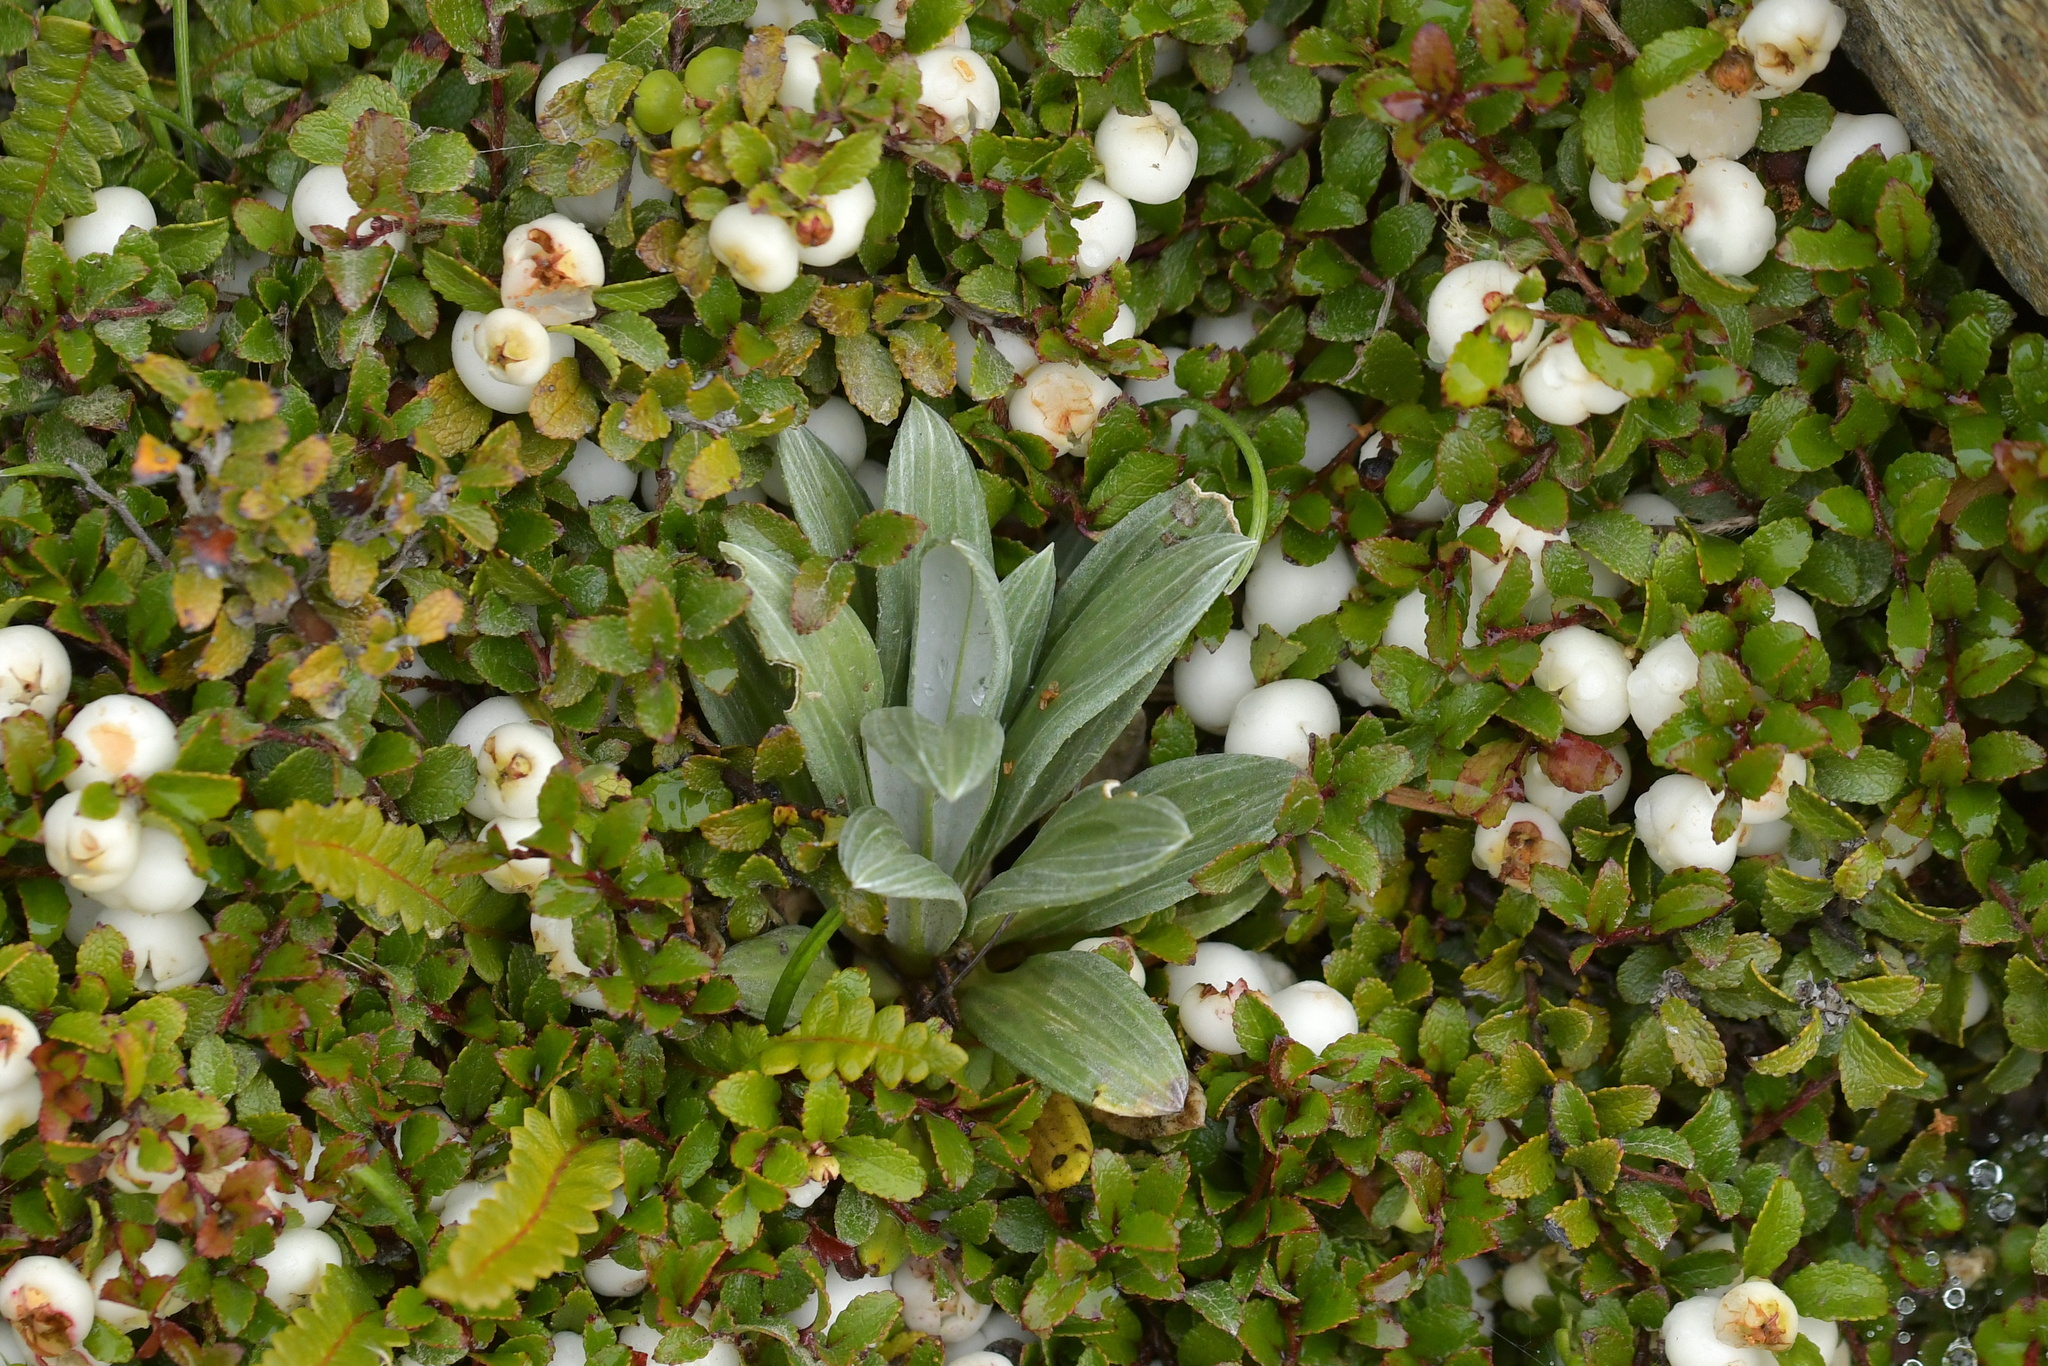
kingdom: Plantae
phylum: Tracheophyta
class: Magnoliopsida
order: Asterales
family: Asteraceae
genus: Celmisia
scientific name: Celmisia haastii
